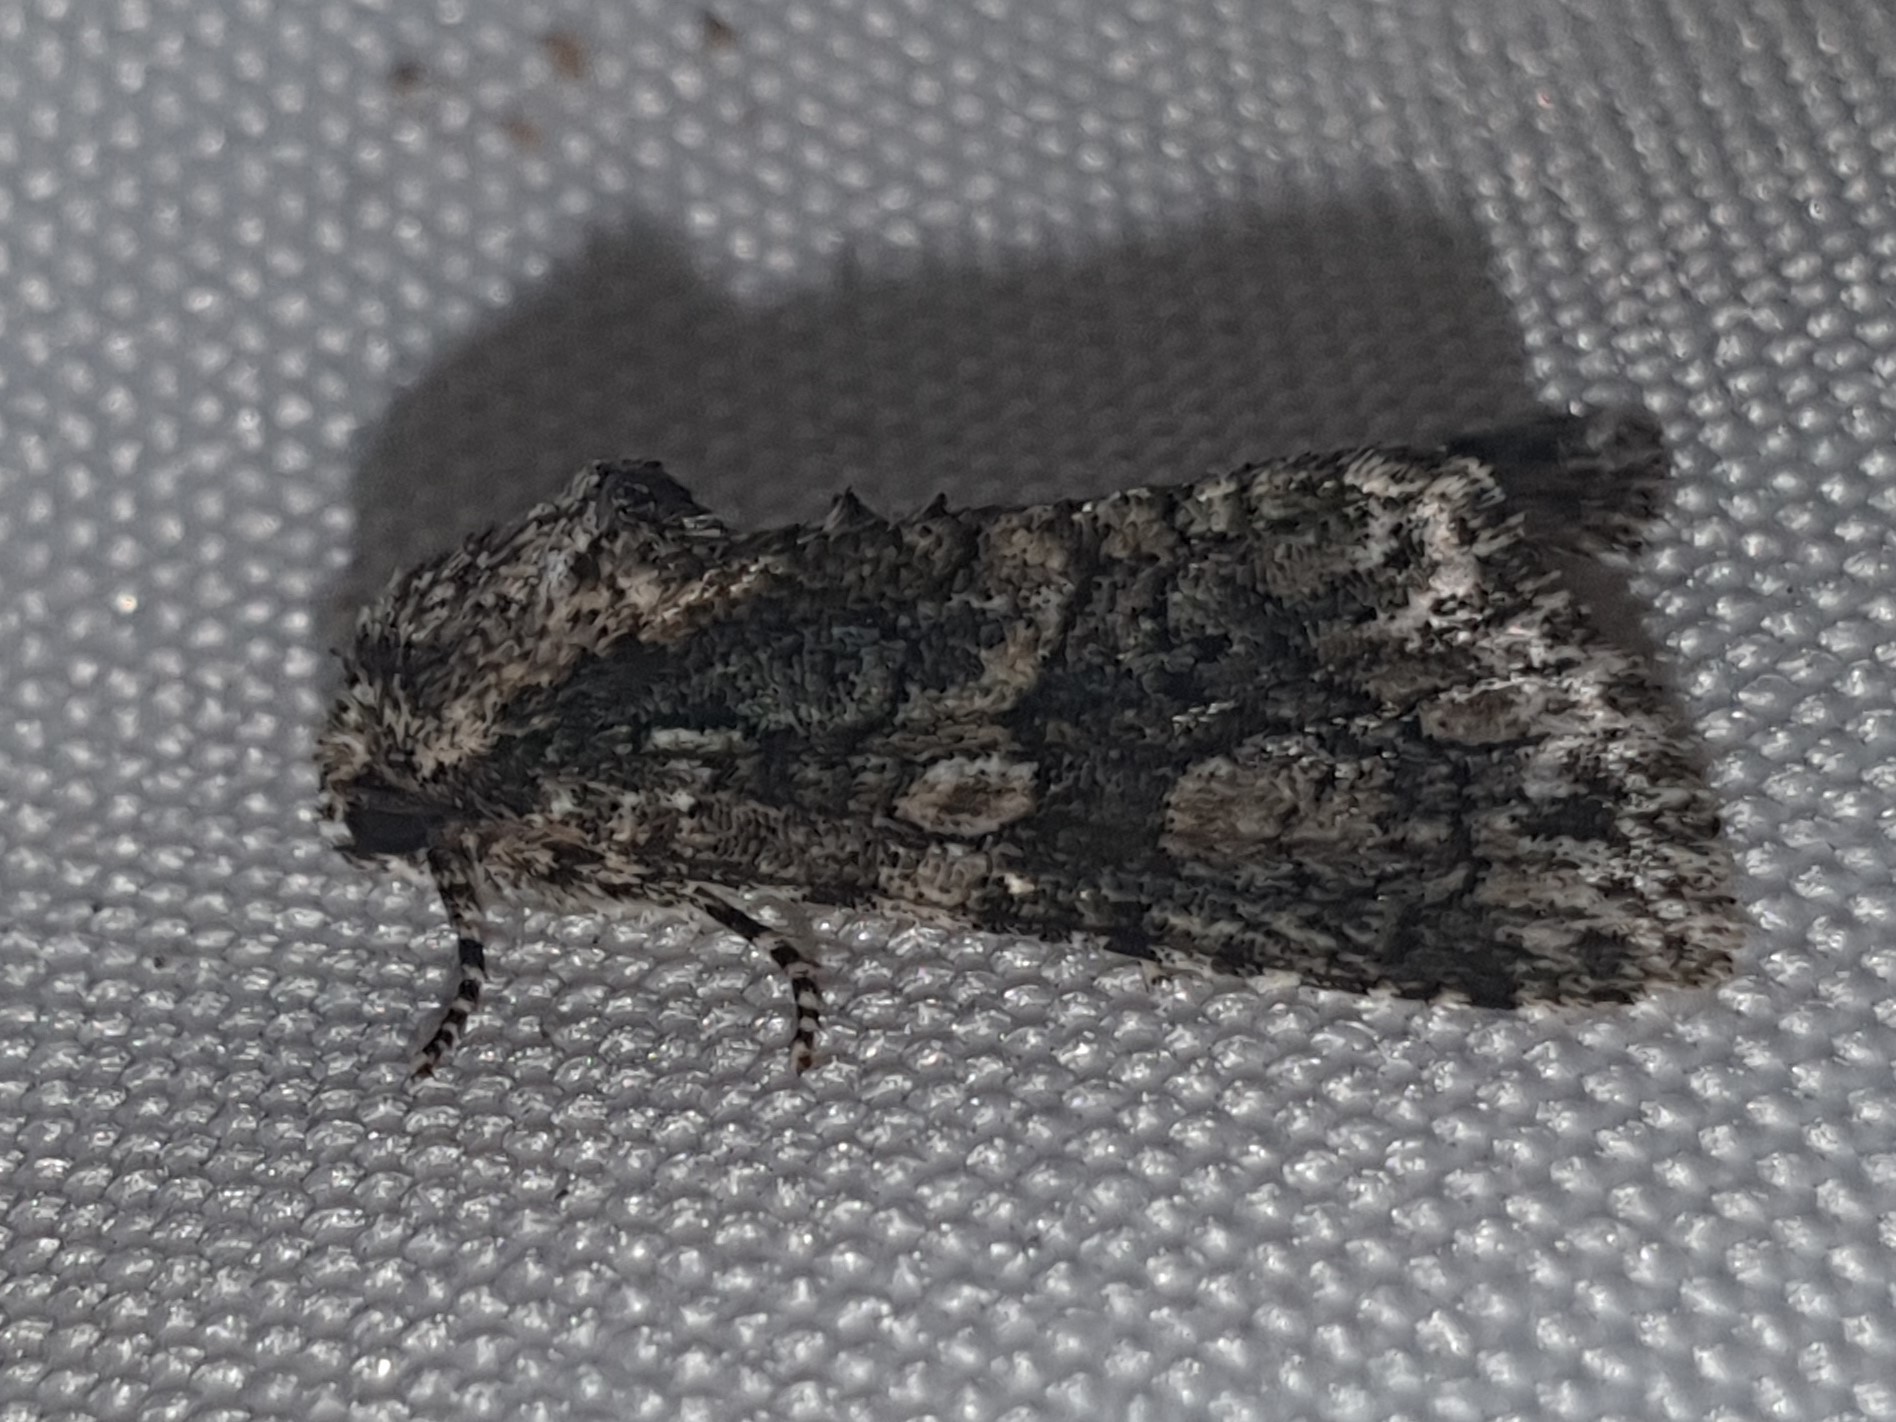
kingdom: Animalia
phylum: Arthropoda
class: Insecta
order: Lepidoptera
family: Noctuidae
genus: Craniophora
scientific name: Craniophora ligustri
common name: Coronet
